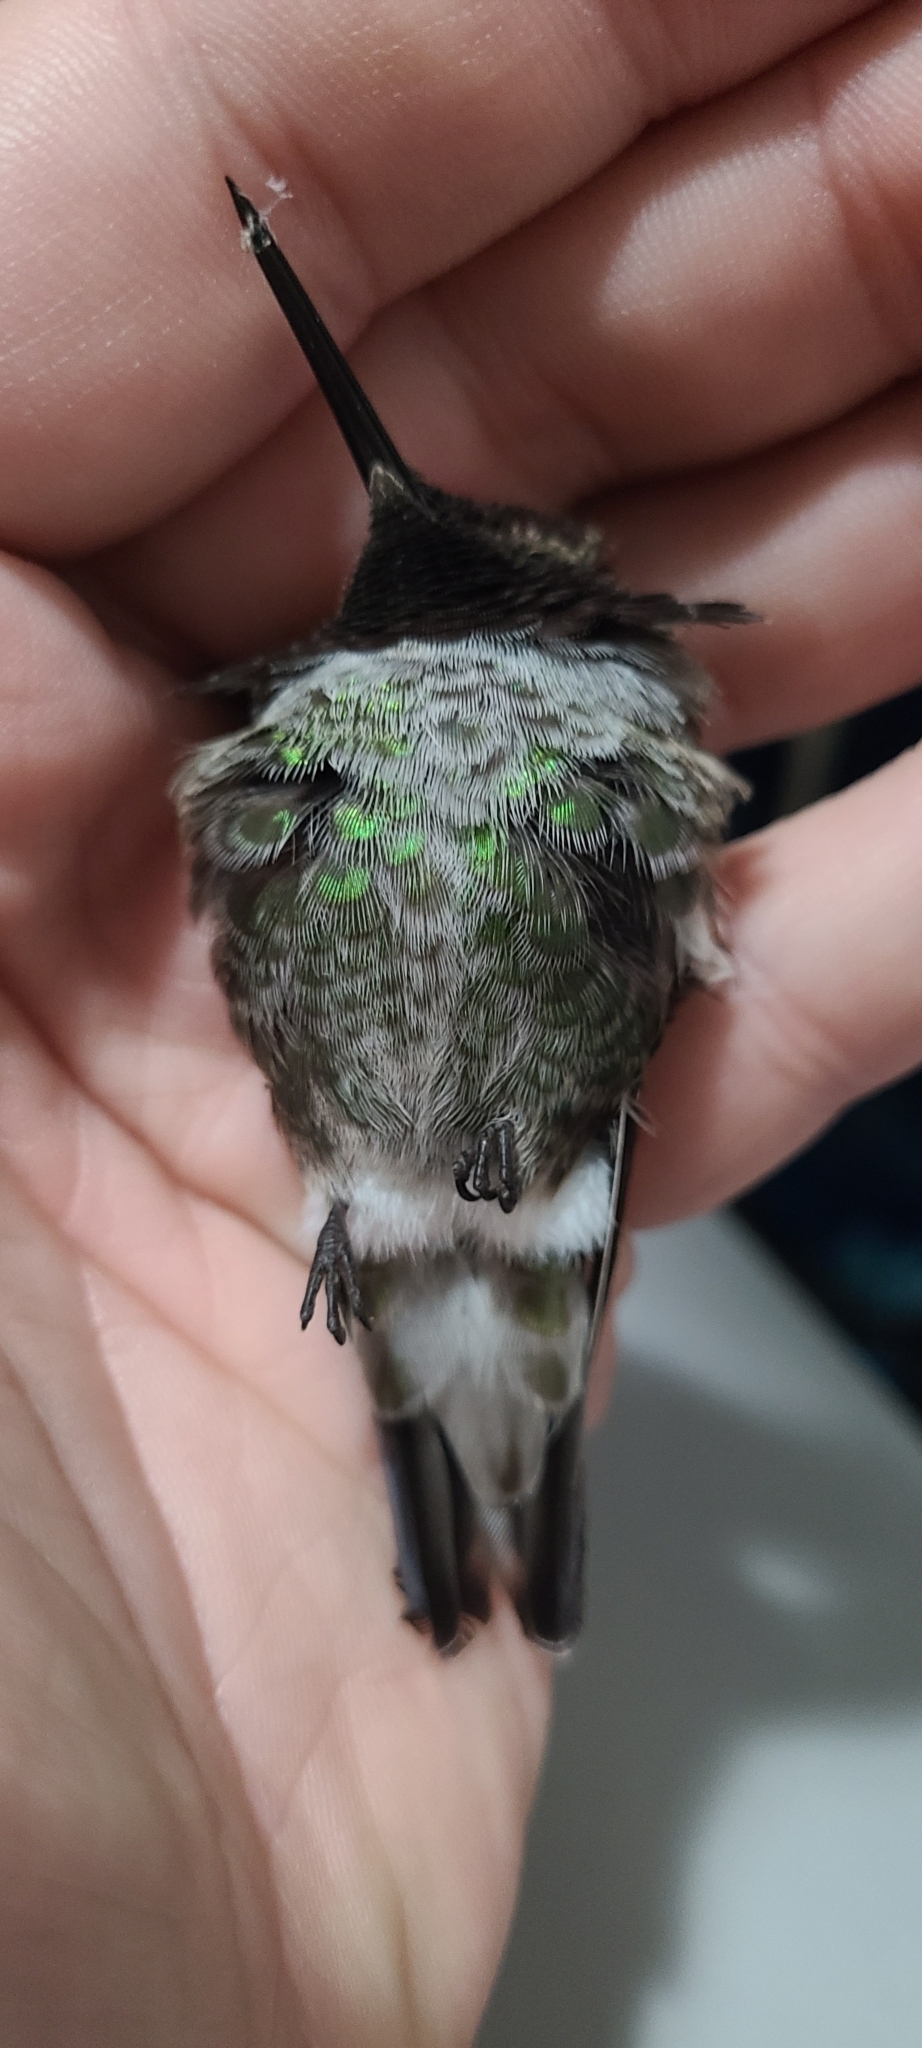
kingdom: Animalia
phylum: Chordata
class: Aves
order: Apodiformes
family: Trochilidae
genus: Calypte
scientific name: Calypte anna
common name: Anna's hummingbird
